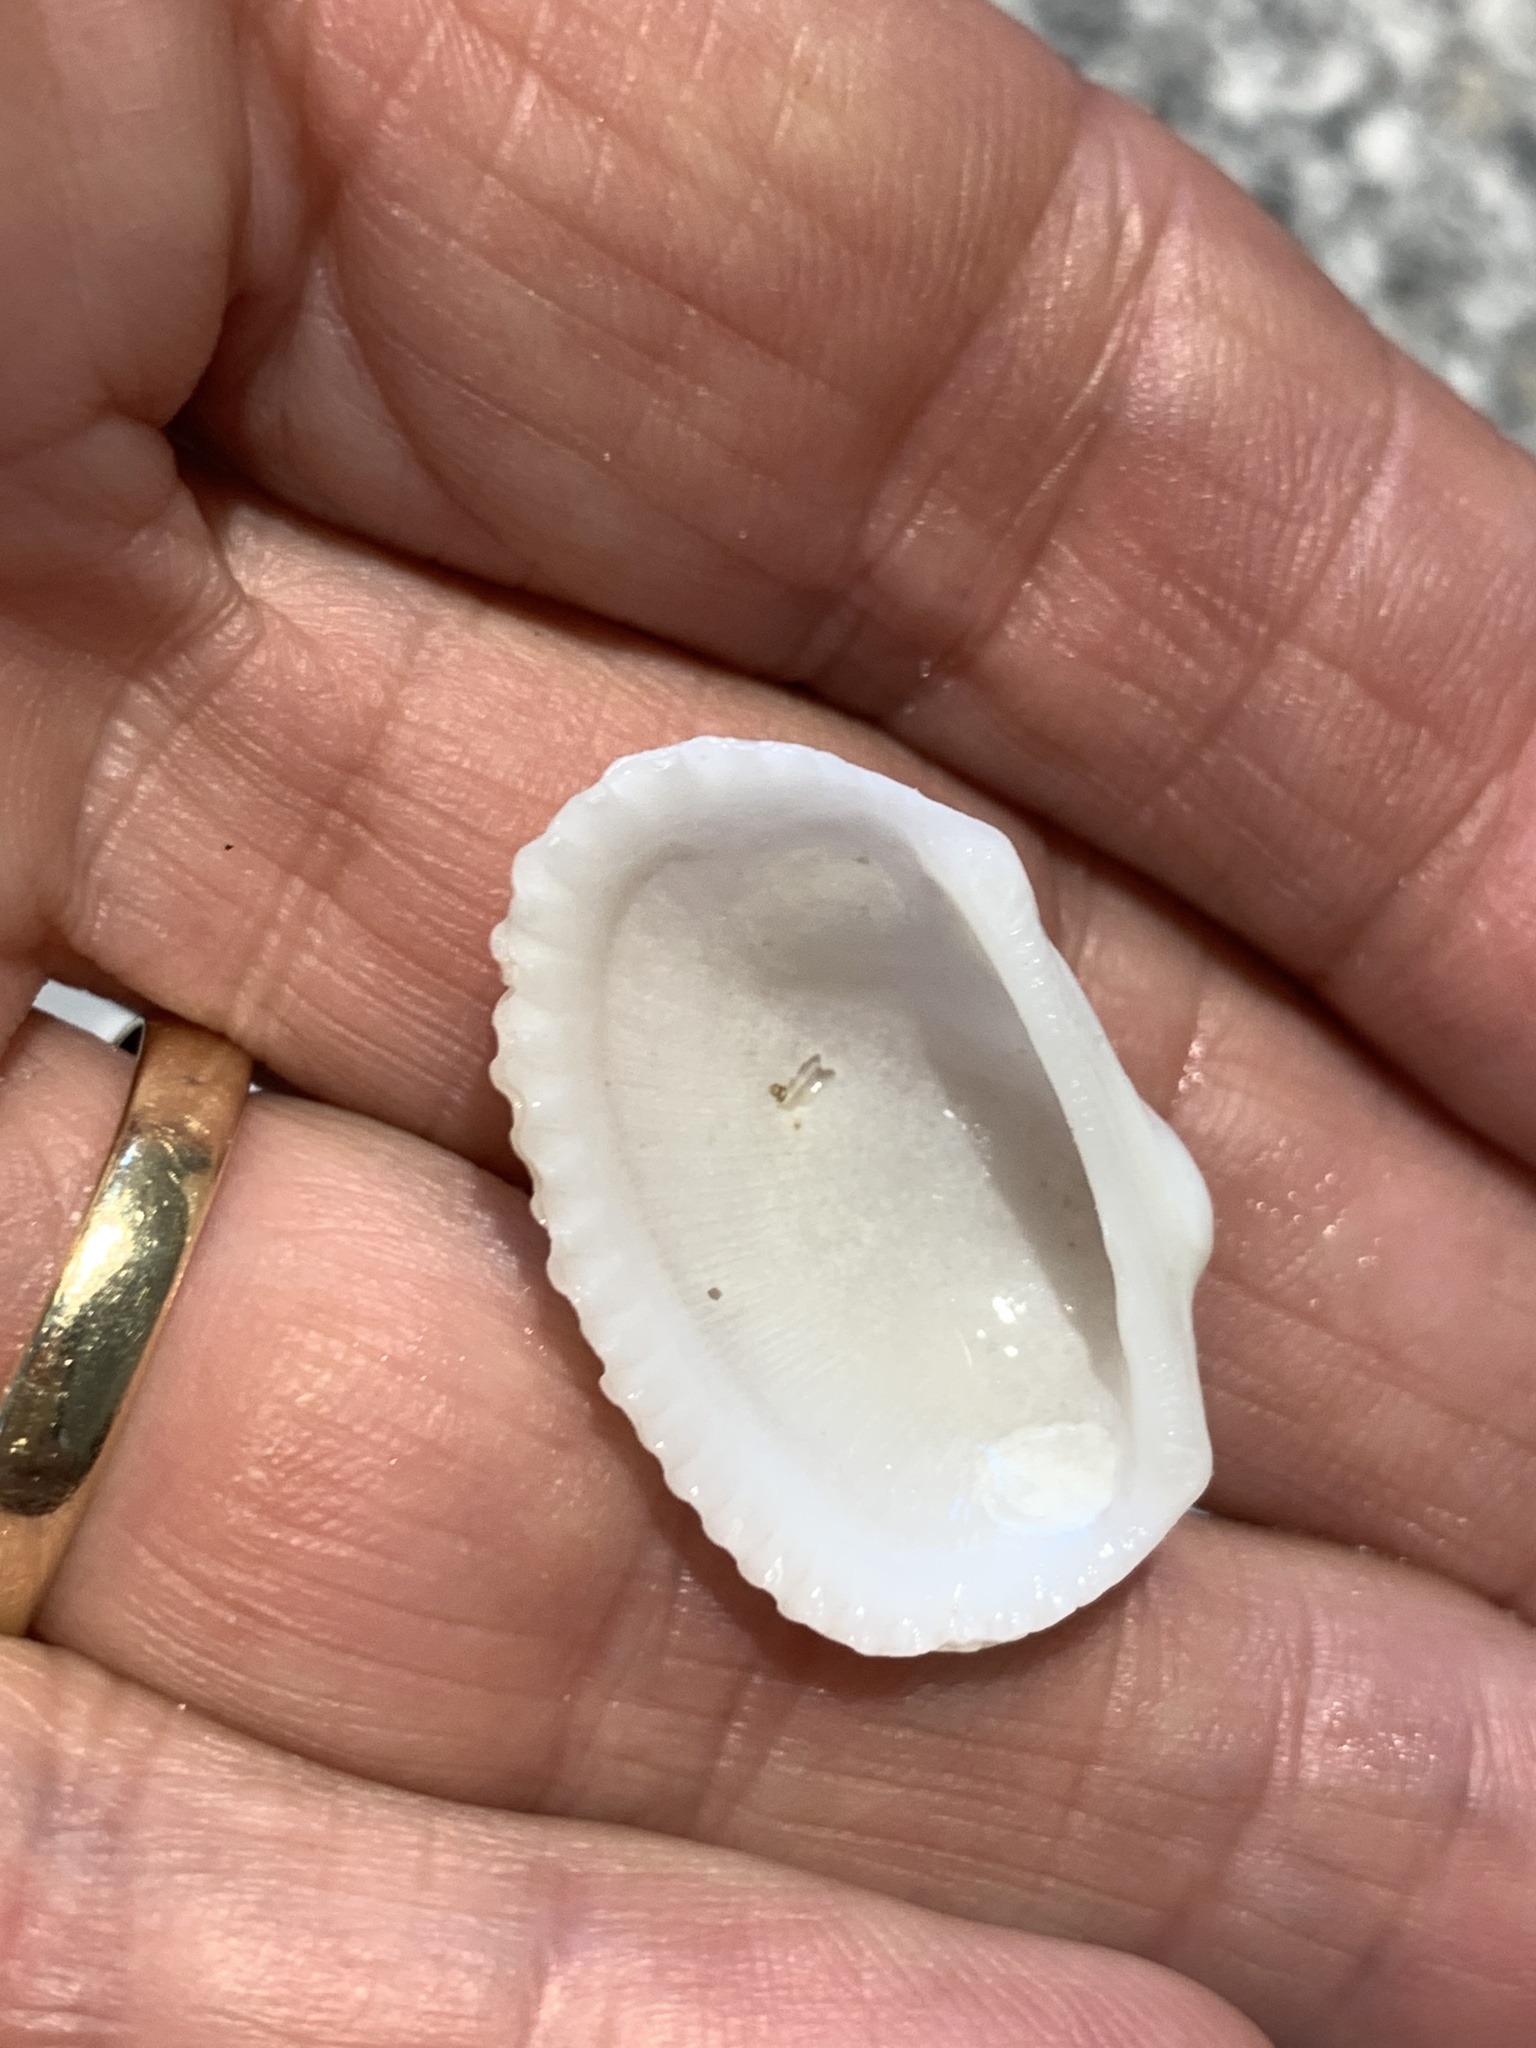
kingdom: Animalia
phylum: Mollusca
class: Bivalvia
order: Arcida
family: Arcidae
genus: Anadara
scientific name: Anadara transversa
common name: Transverse ark
